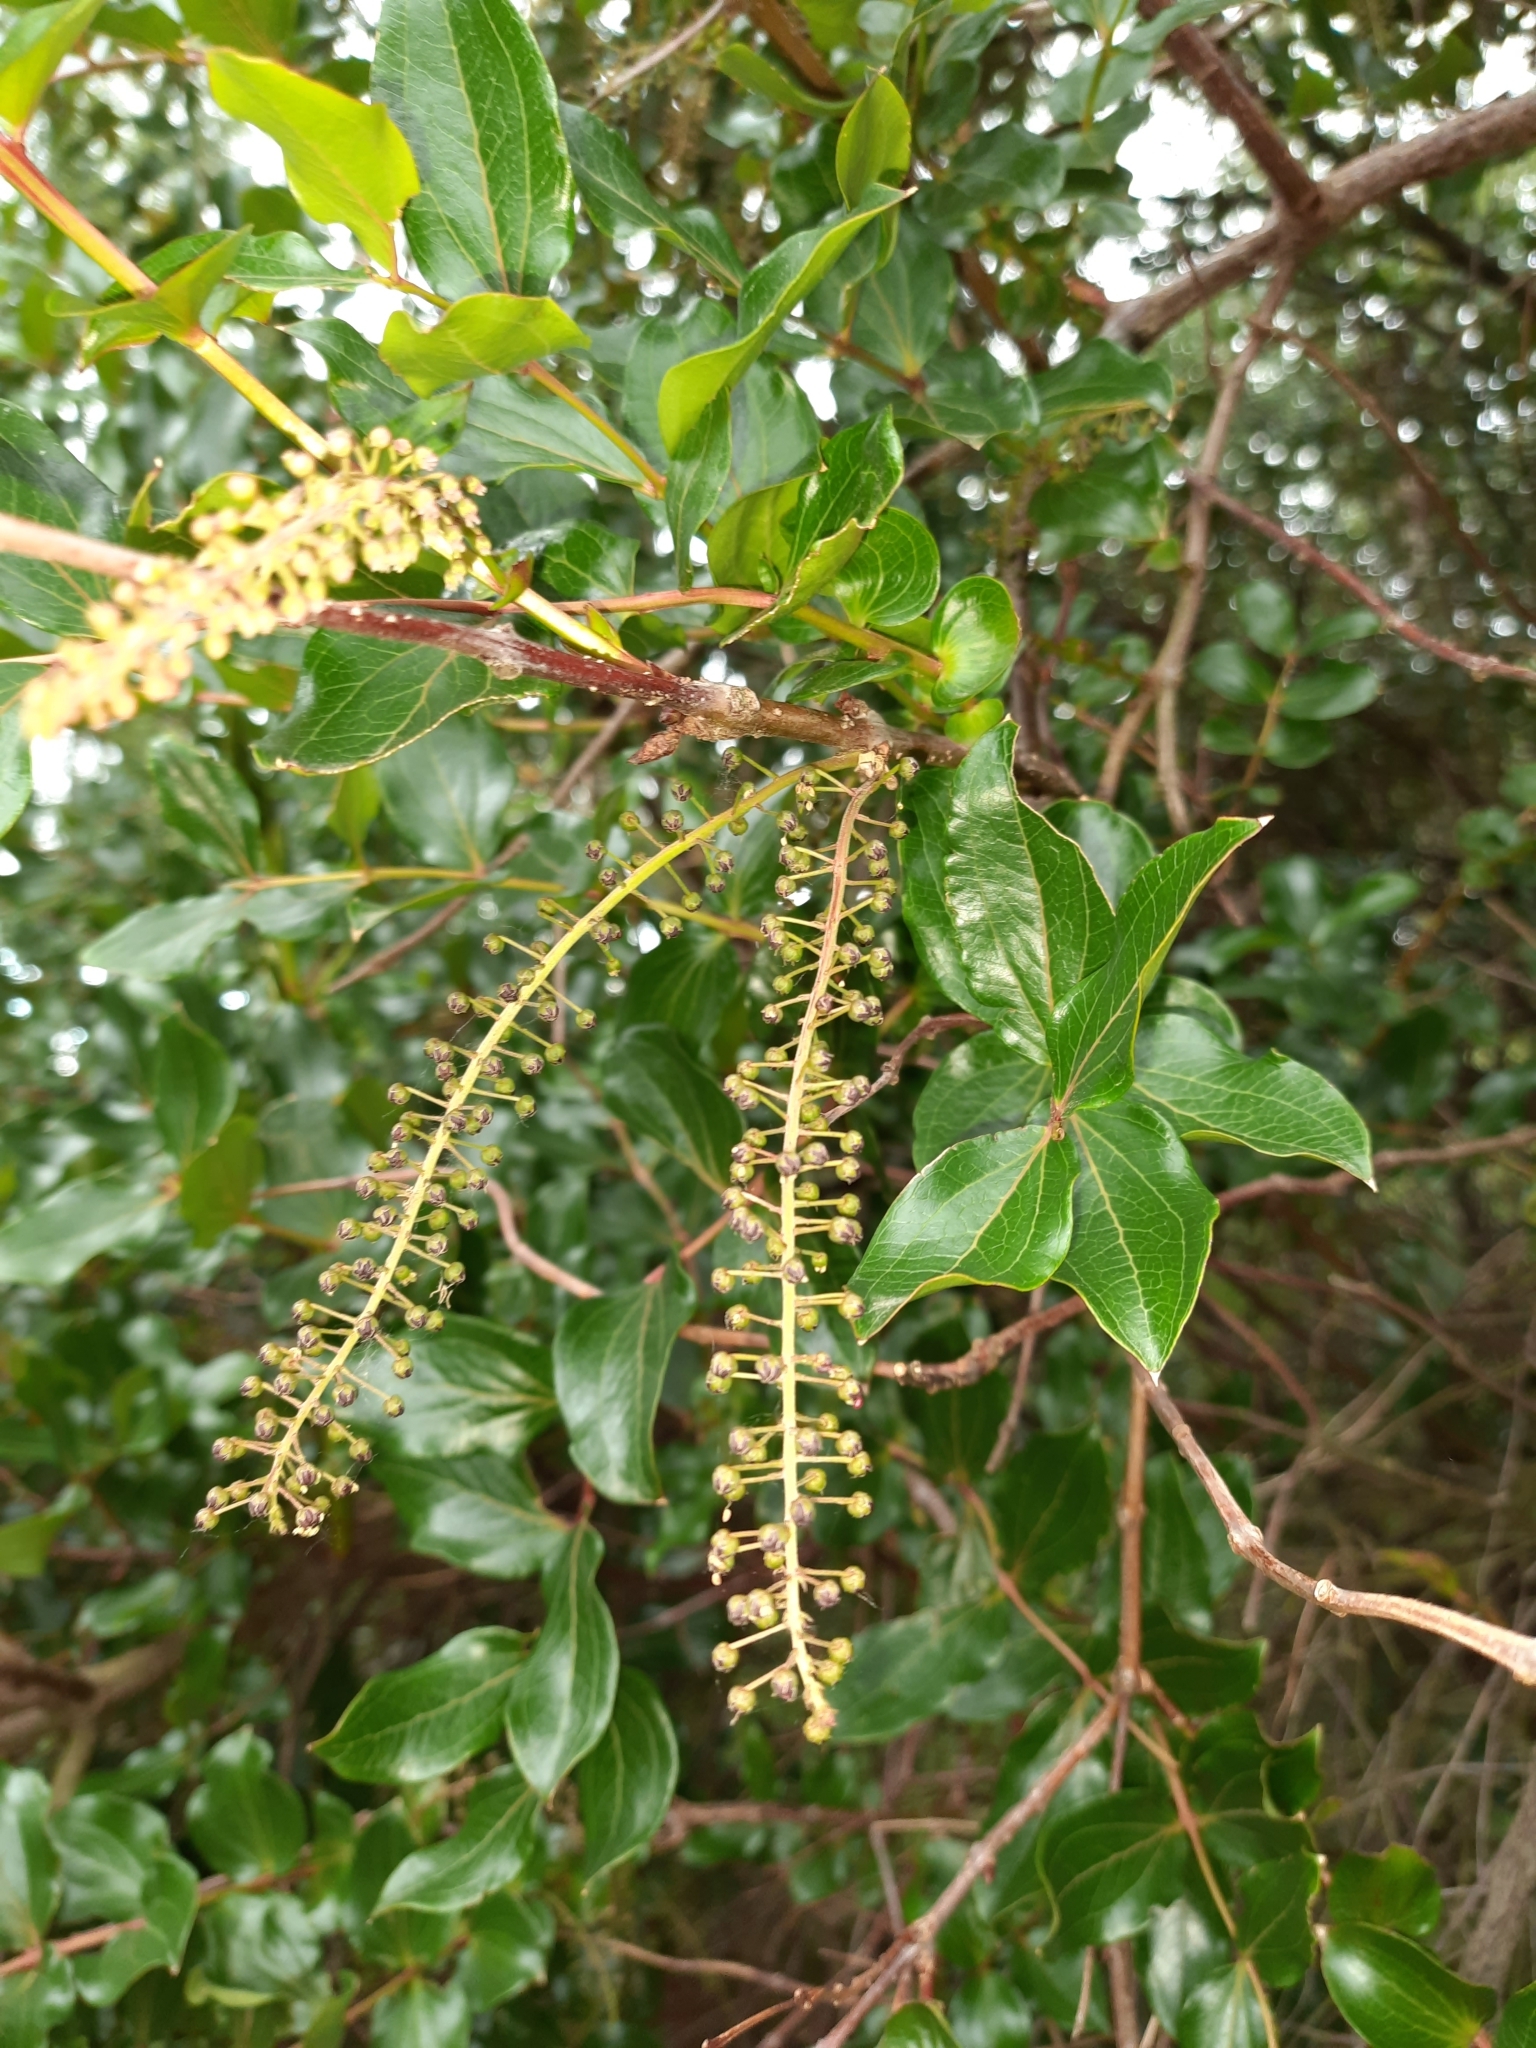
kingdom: Plantae
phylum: Tracheophyta
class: Magnoliopsida
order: Cucurbitales
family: Coriariaceae
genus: Coriaria
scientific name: Coriaria arborea
